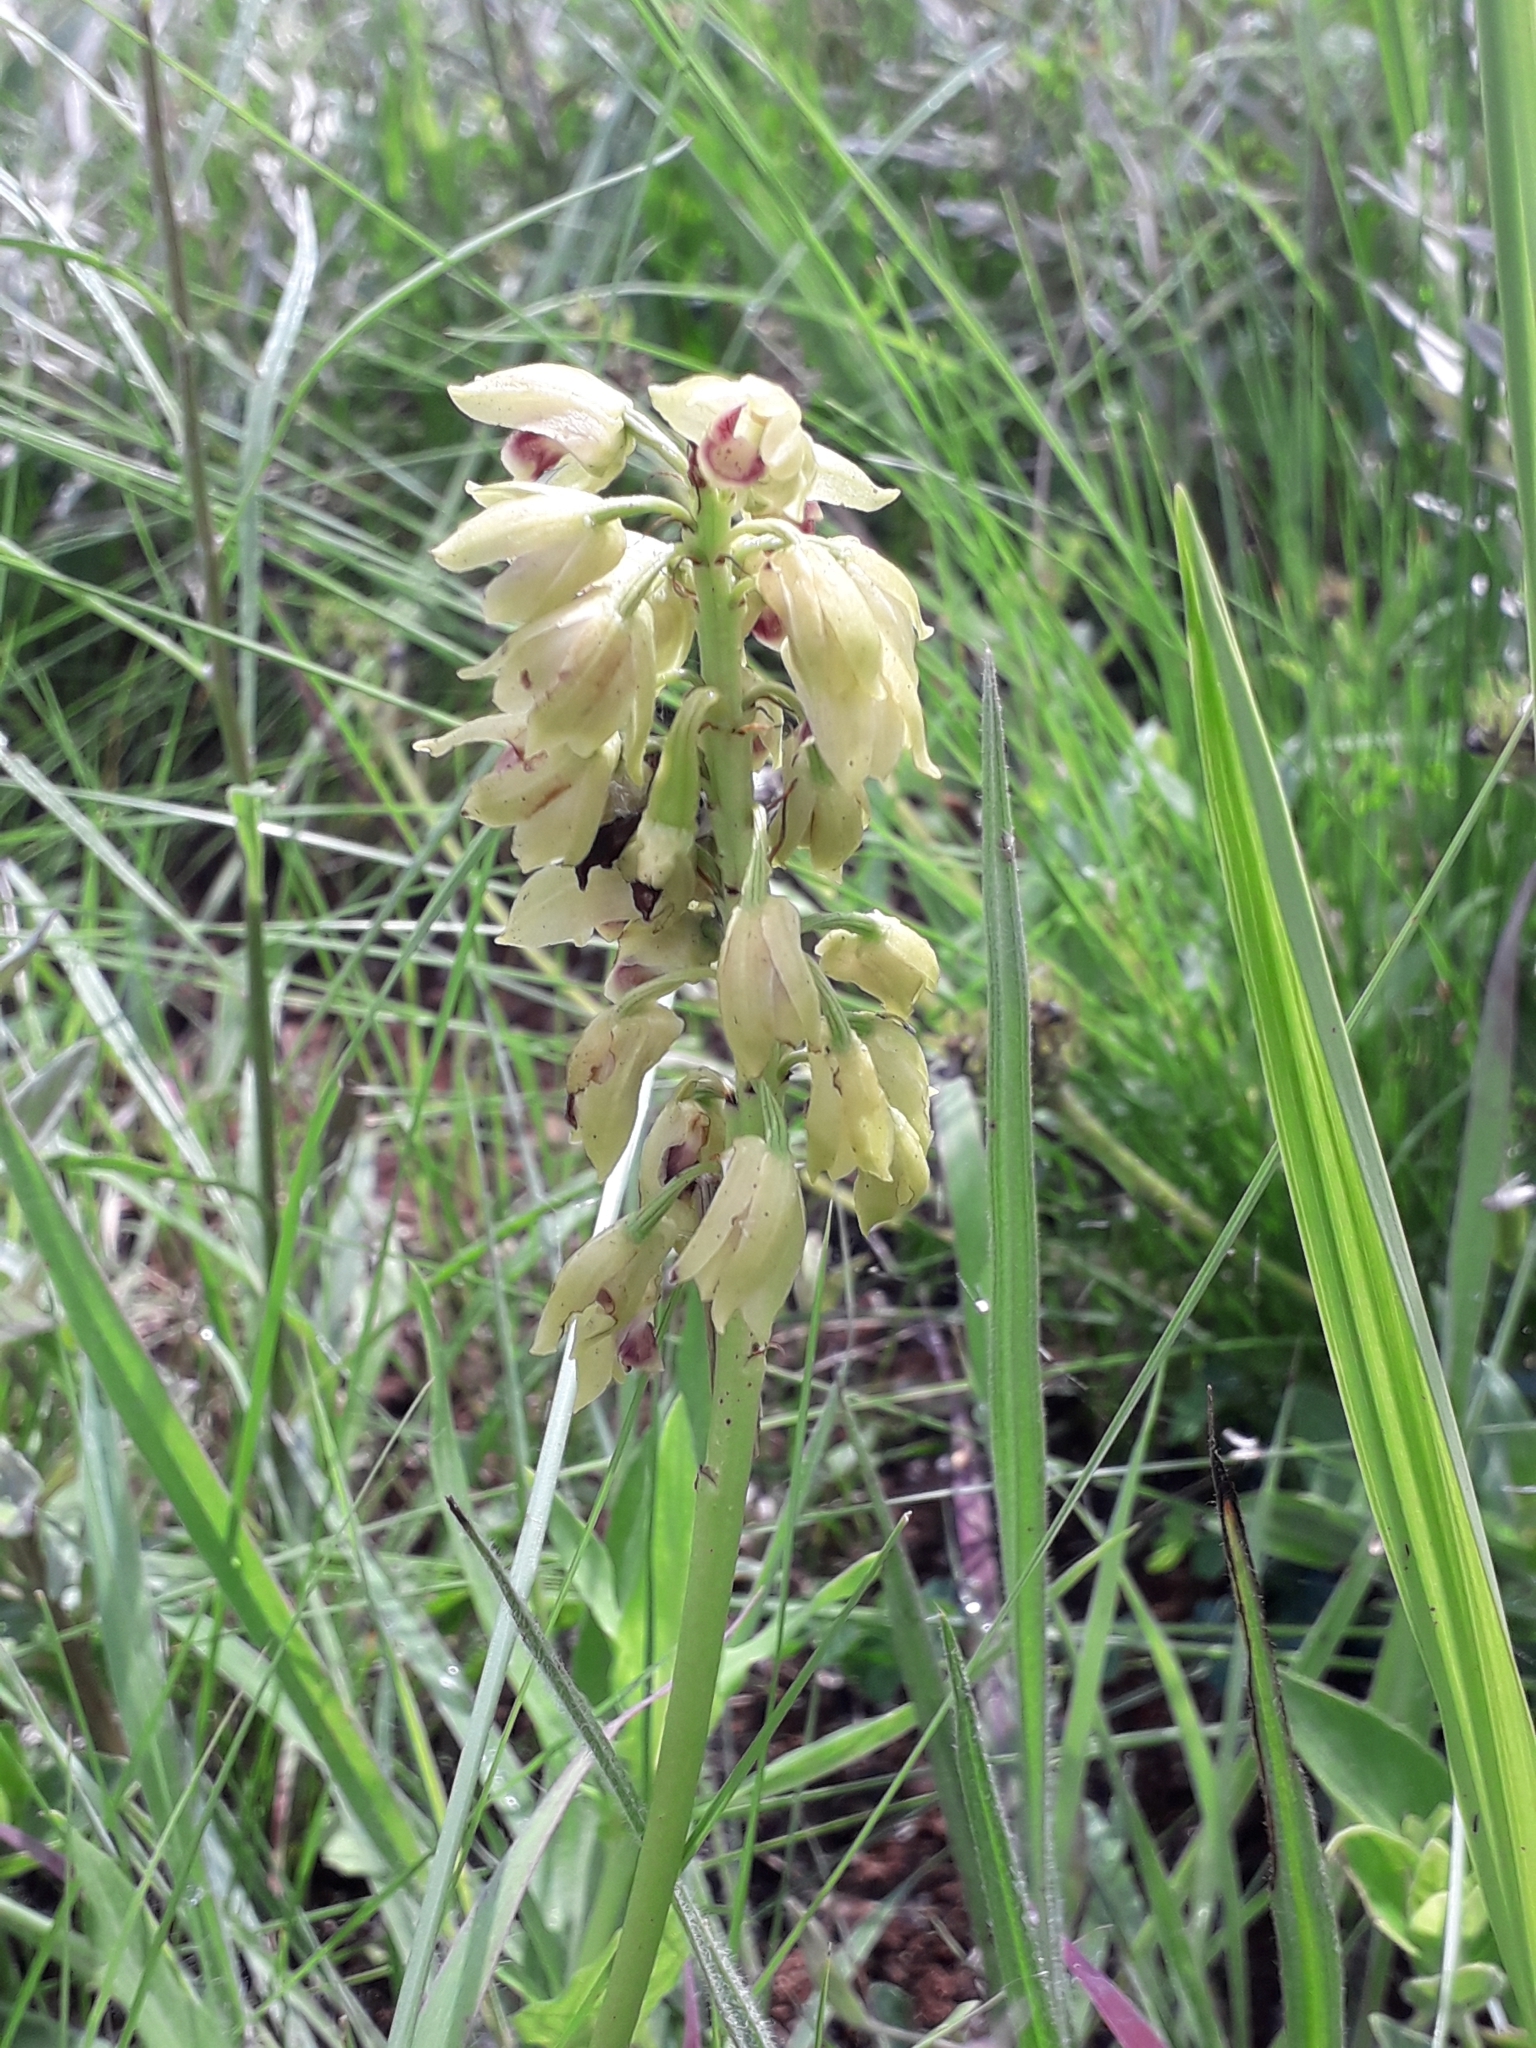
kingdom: Plantae
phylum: Tracheophyta
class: Liliopsida
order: Asparagales
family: Orchidaceae
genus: Eulophia
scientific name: Eulophia foliosa
